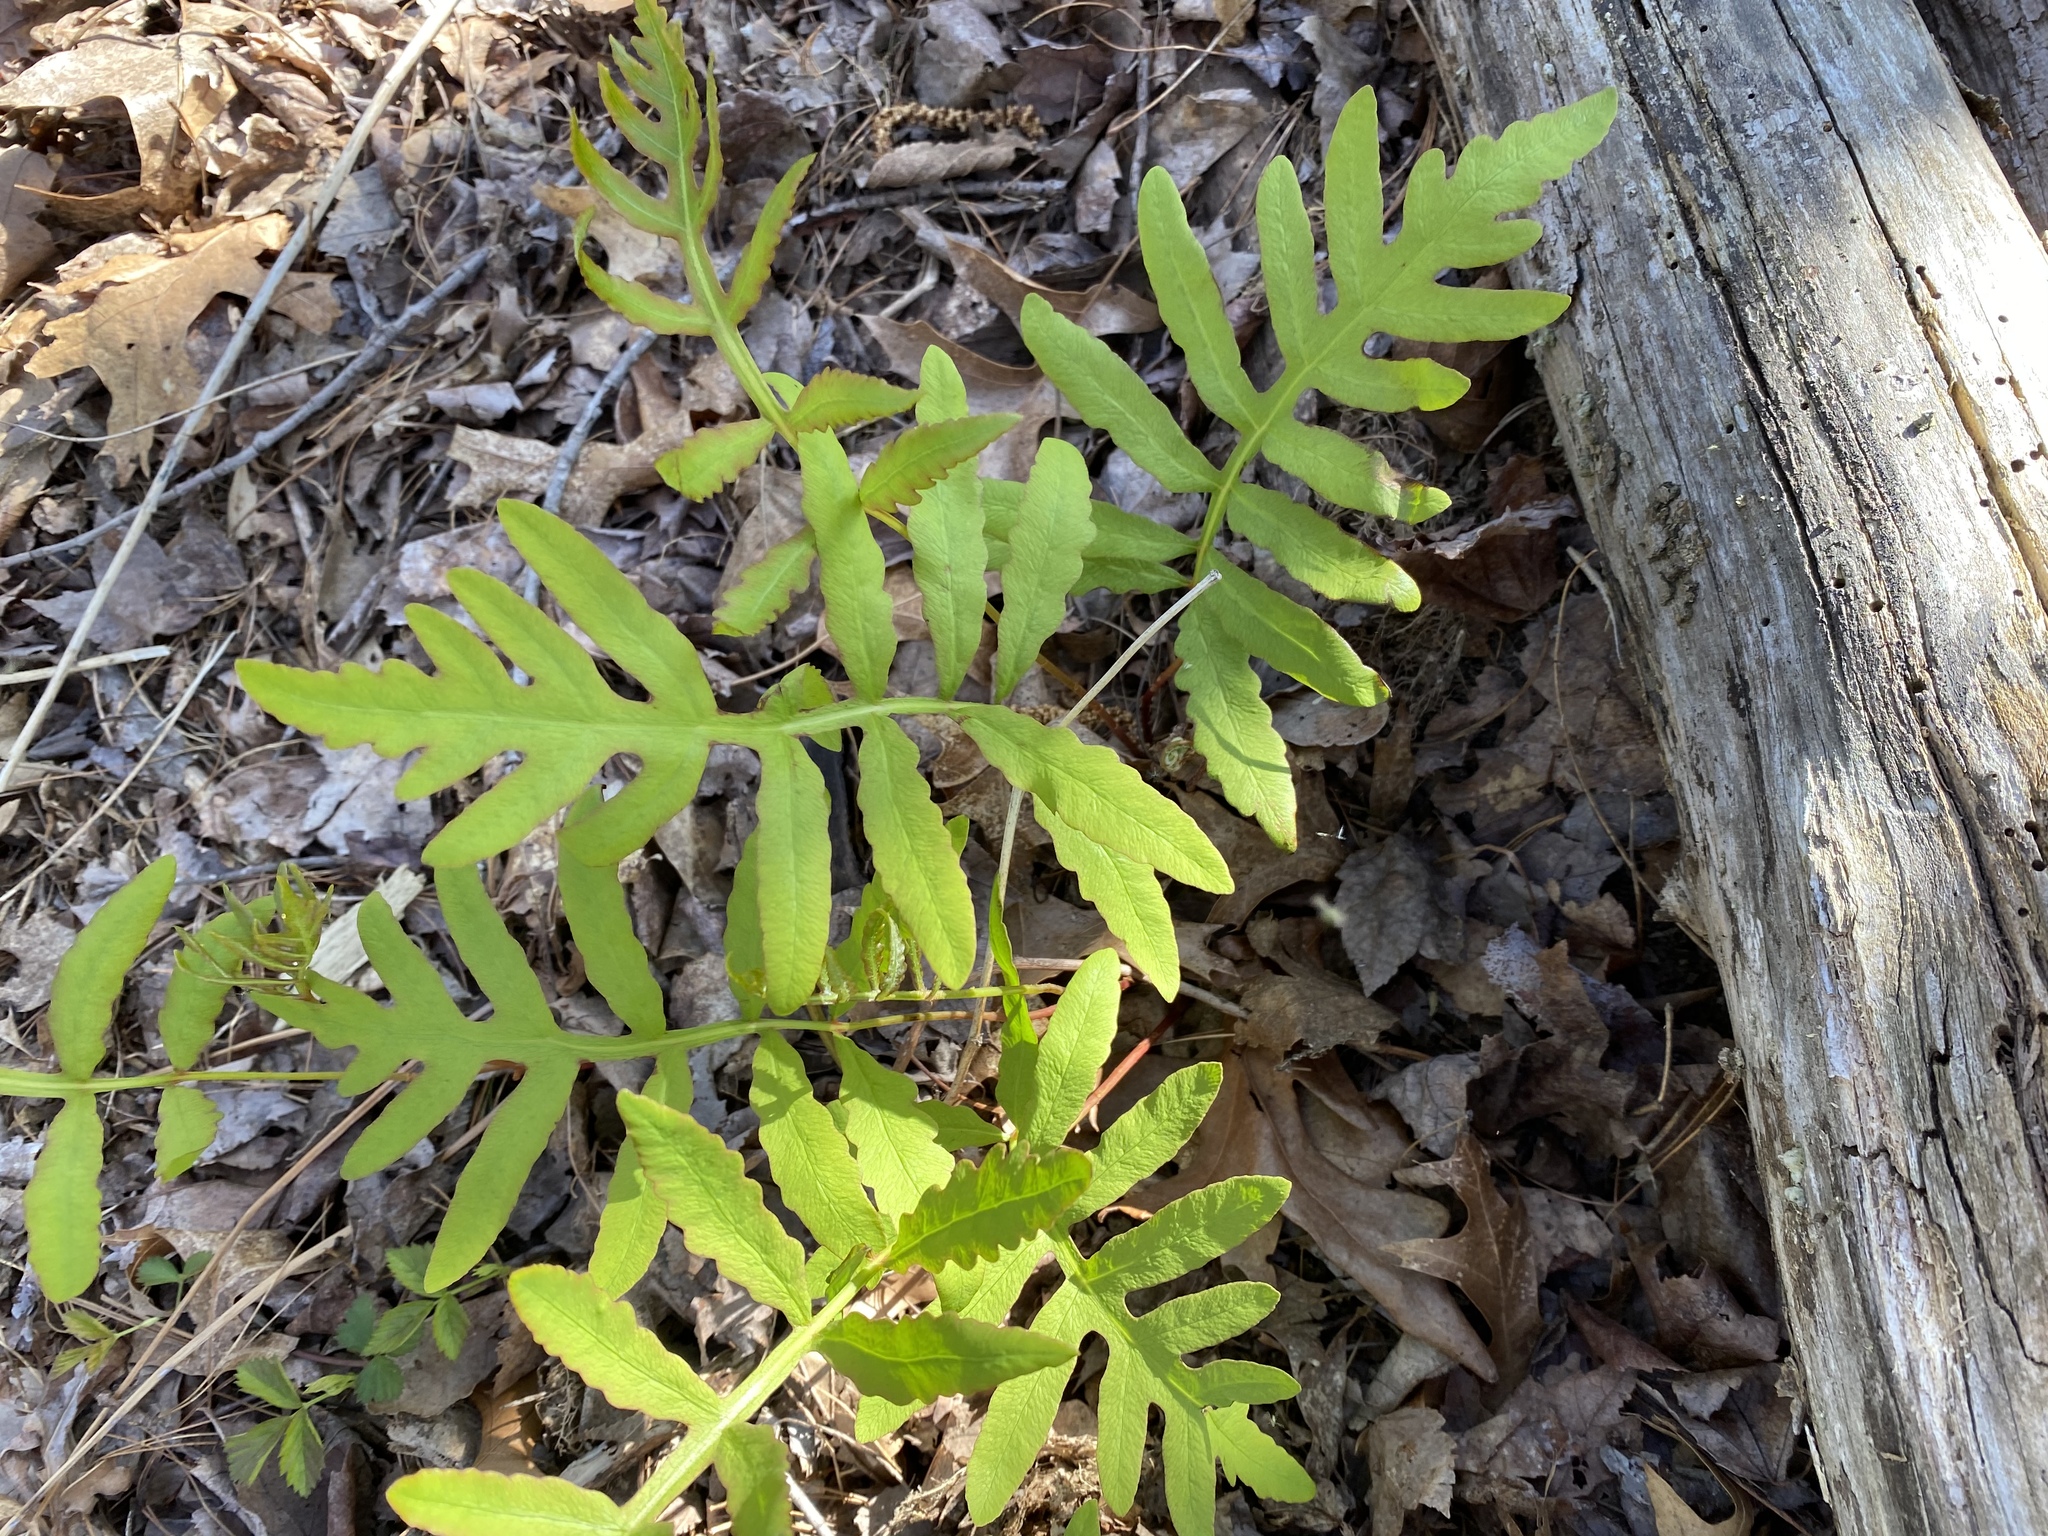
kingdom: Plantae
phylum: Tracheophyta
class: Polypodiopsida
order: Polypodiales
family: Onocleaceae
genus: Onoclea
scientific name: Onoclea sensibilis
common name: Sensitive fern
